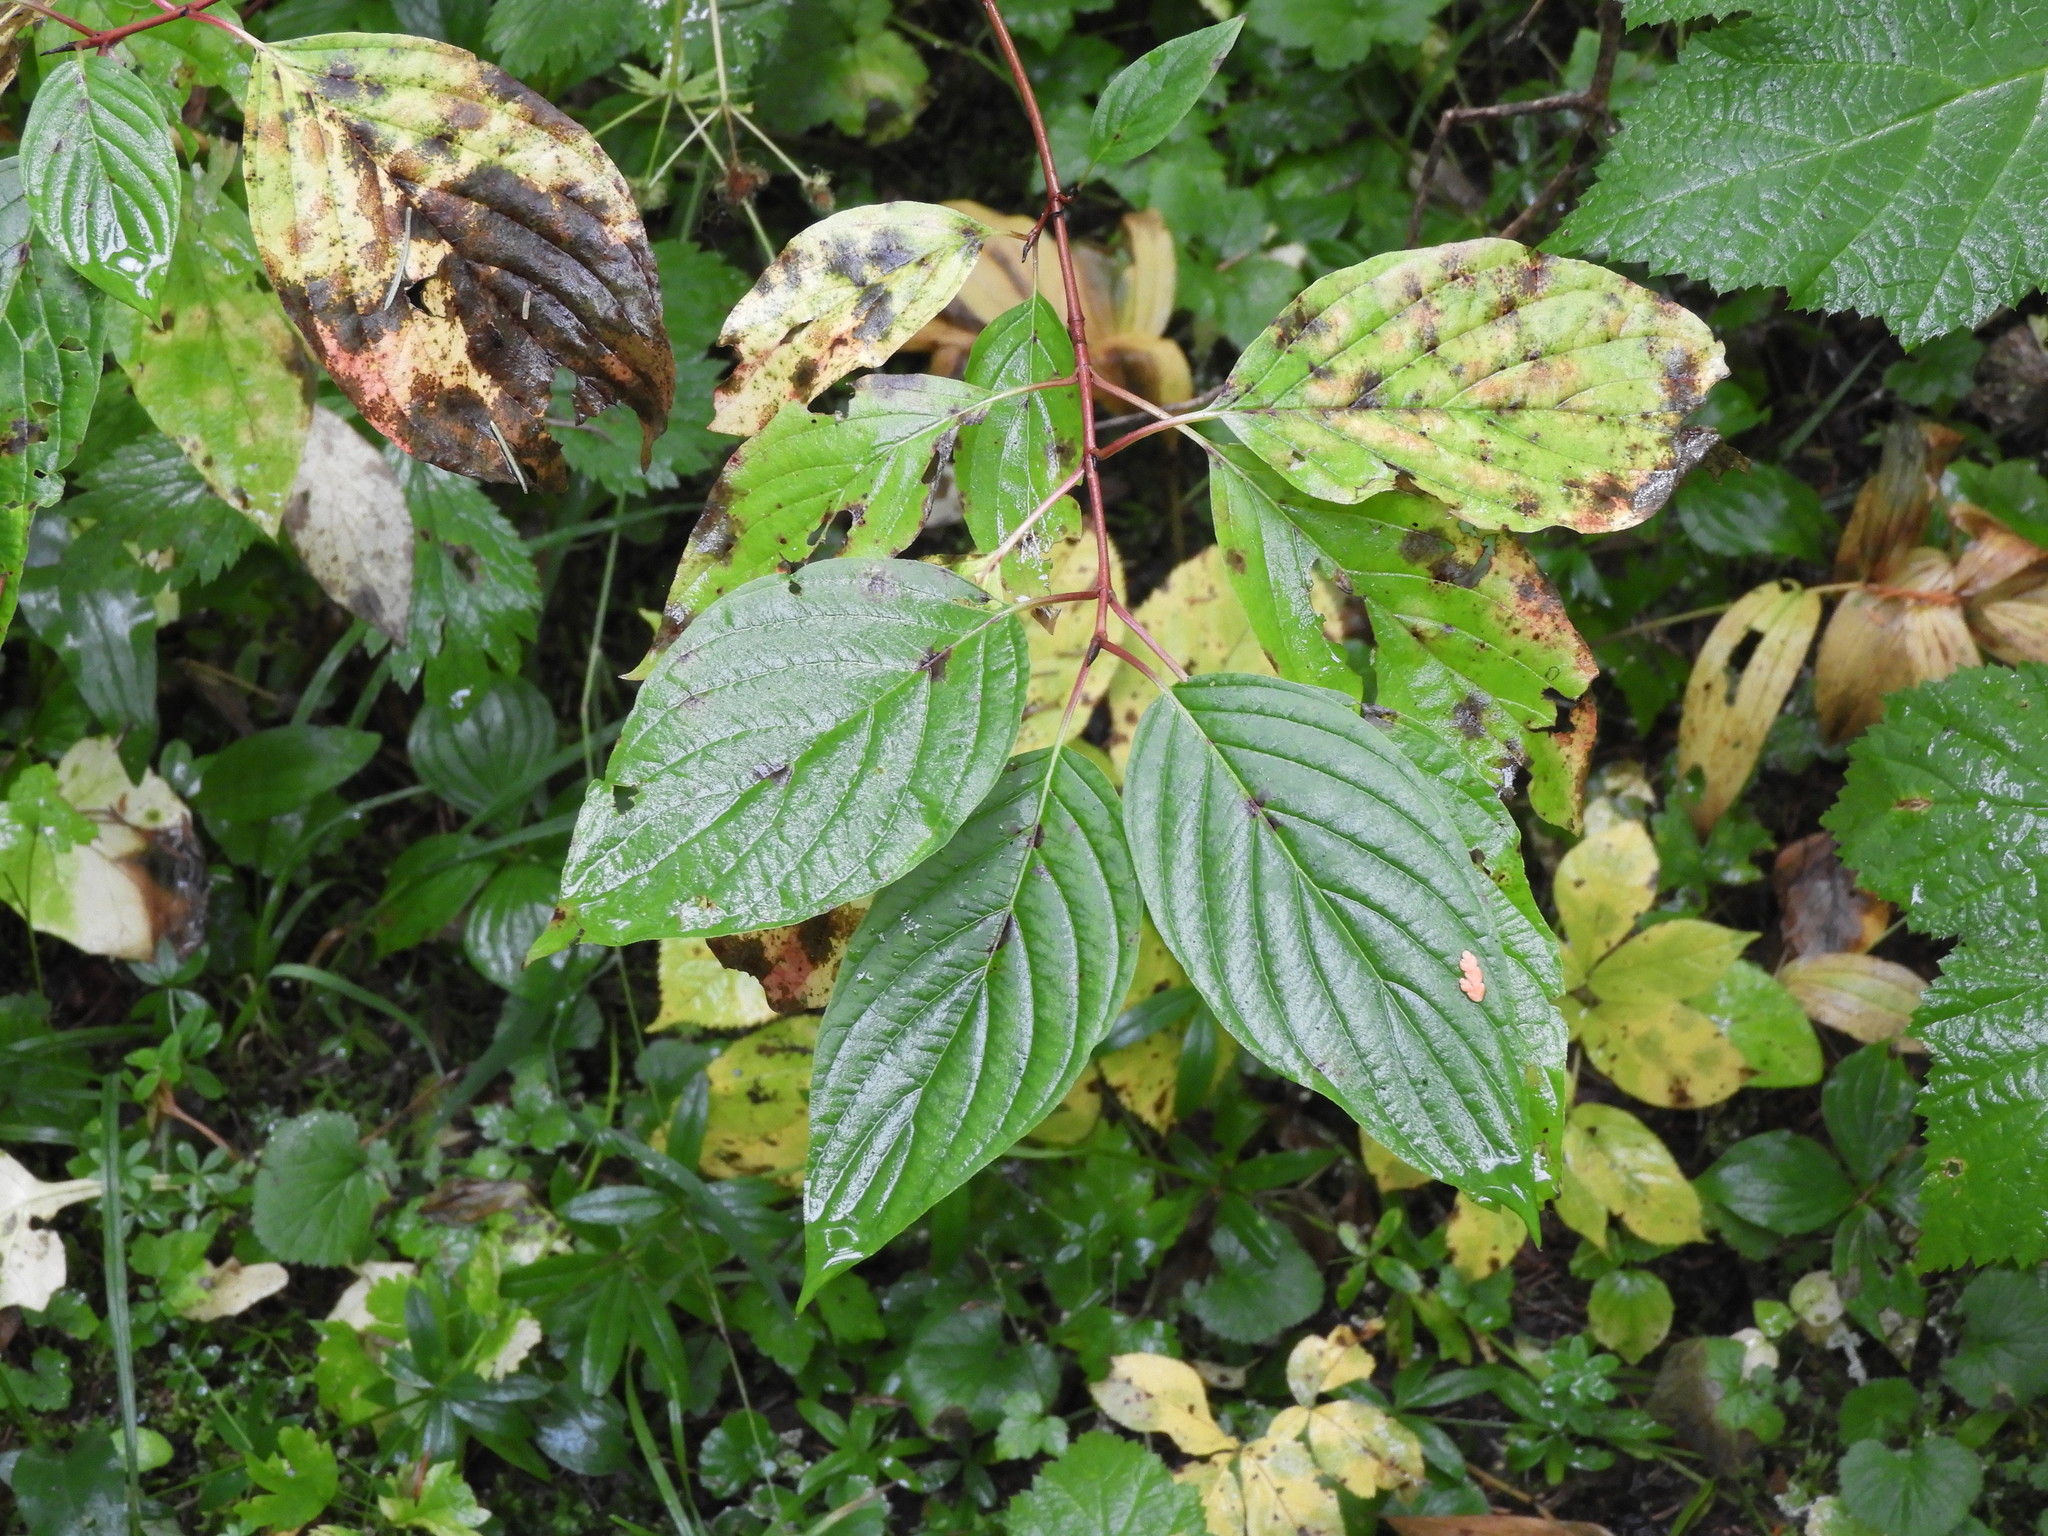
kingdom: Plantae
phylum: Tracheophyta
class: Magnoliopsida
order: Cornales
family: Cornaceae
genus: Cornus
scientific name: Cornus sericea
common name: Red-osier dogwood
